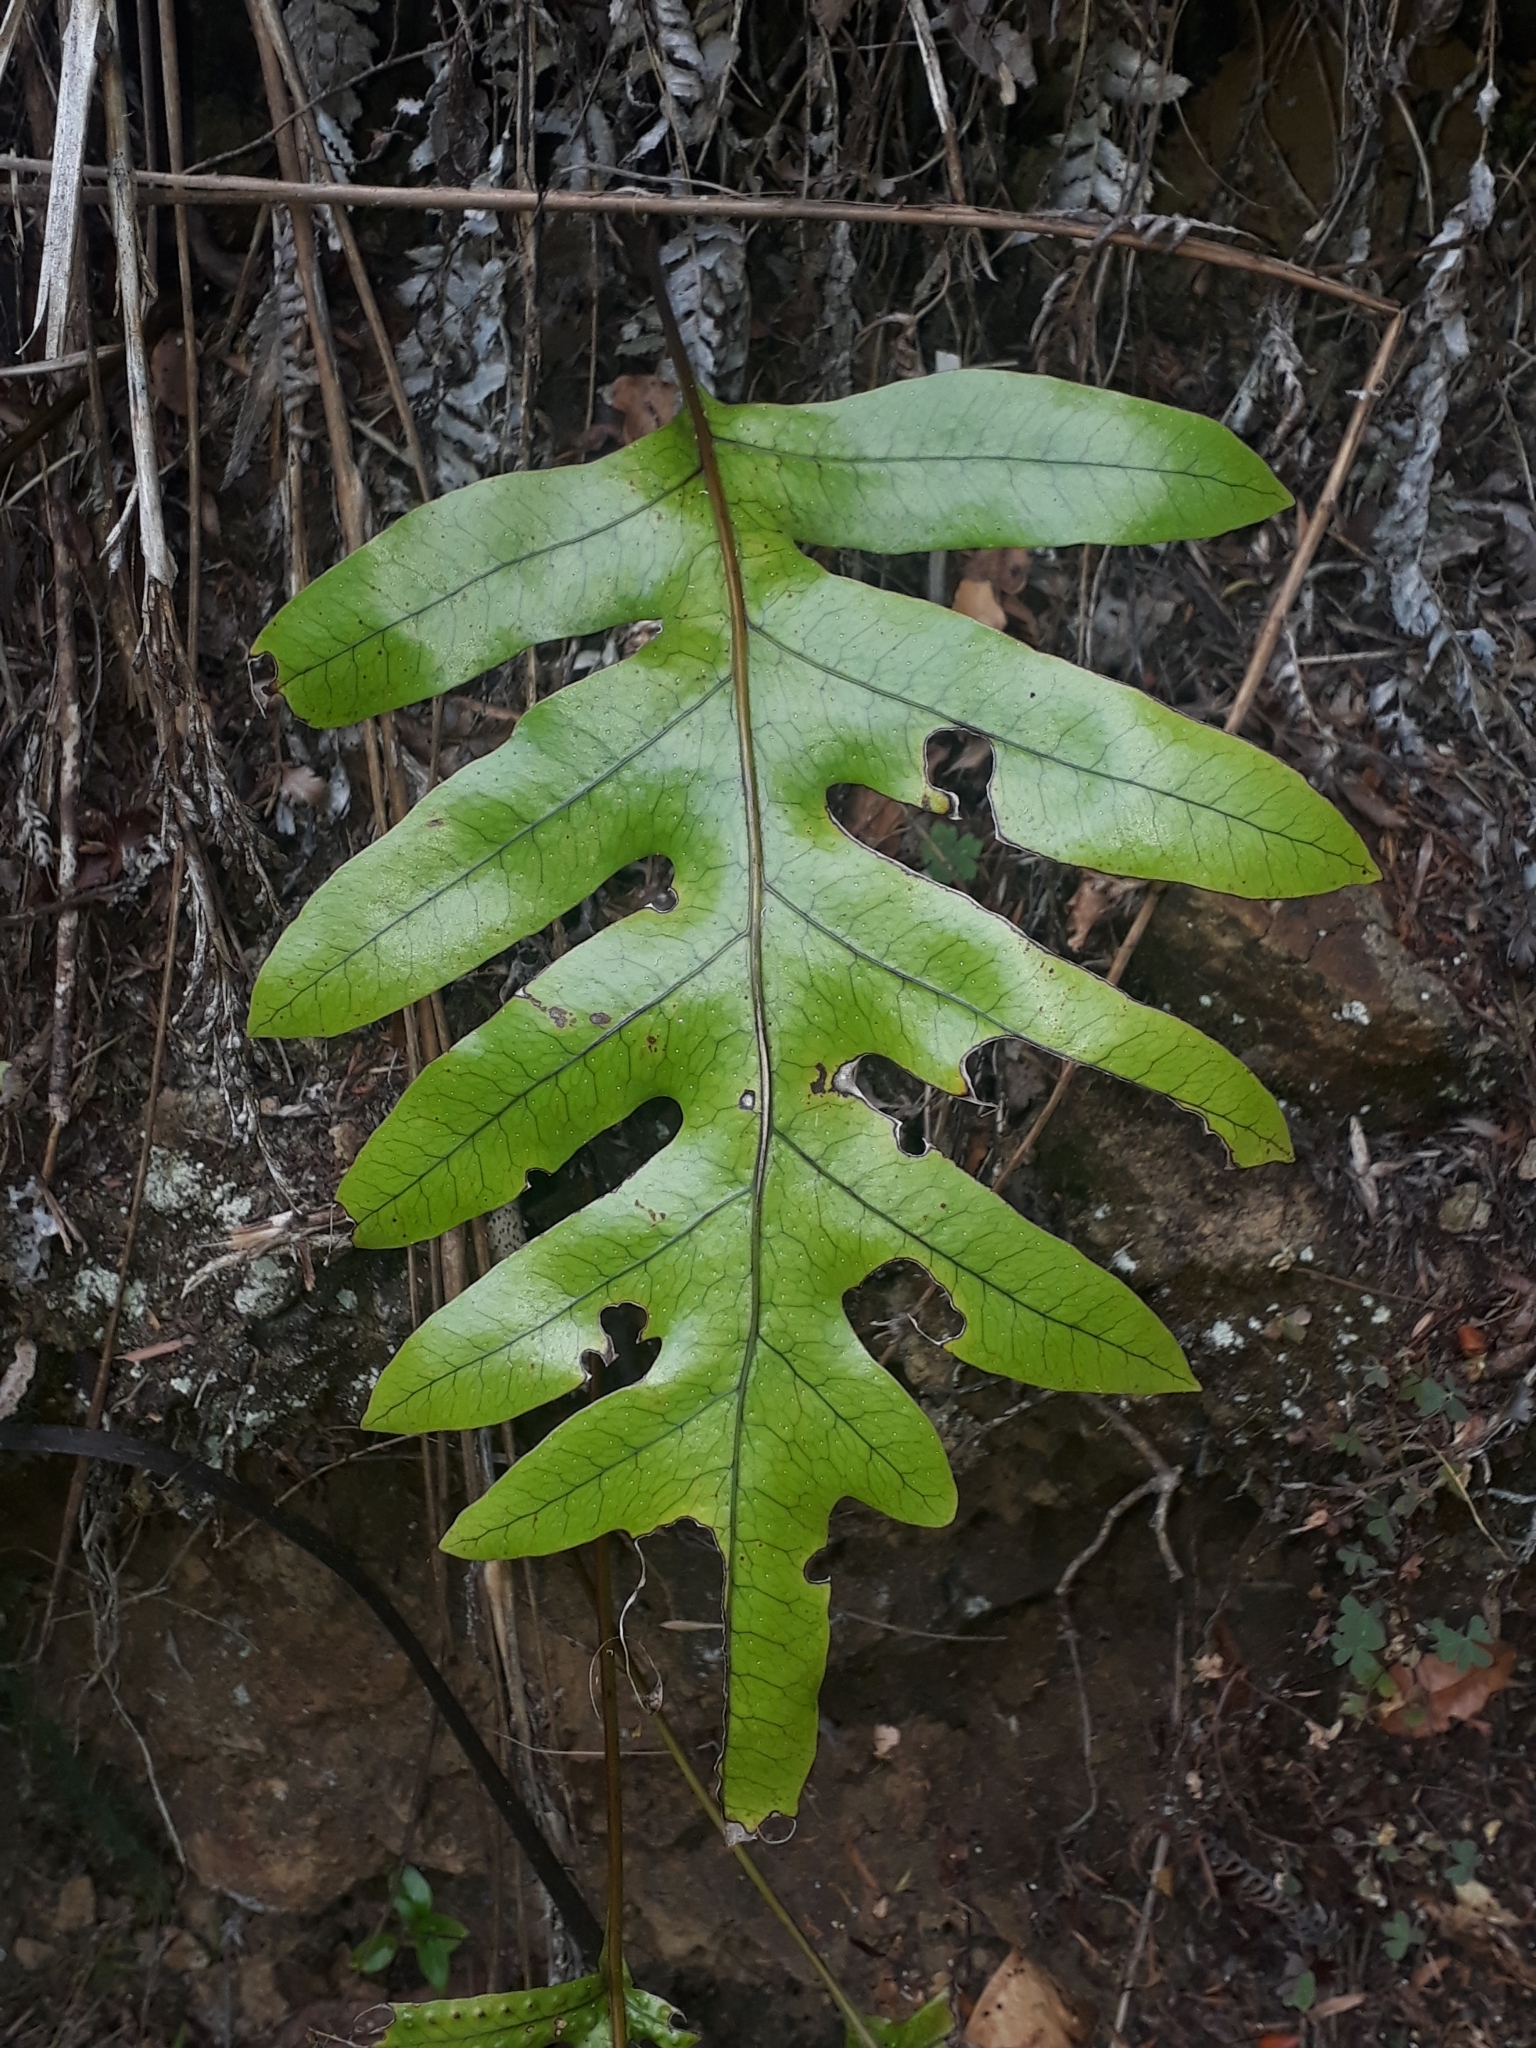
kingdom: Plantae
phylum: Tracheophyta
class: Polypodiopsida
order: Polypodiales
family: Polypodiaceae
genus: Lecanopteris
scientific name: Lecanopteris pustulata
